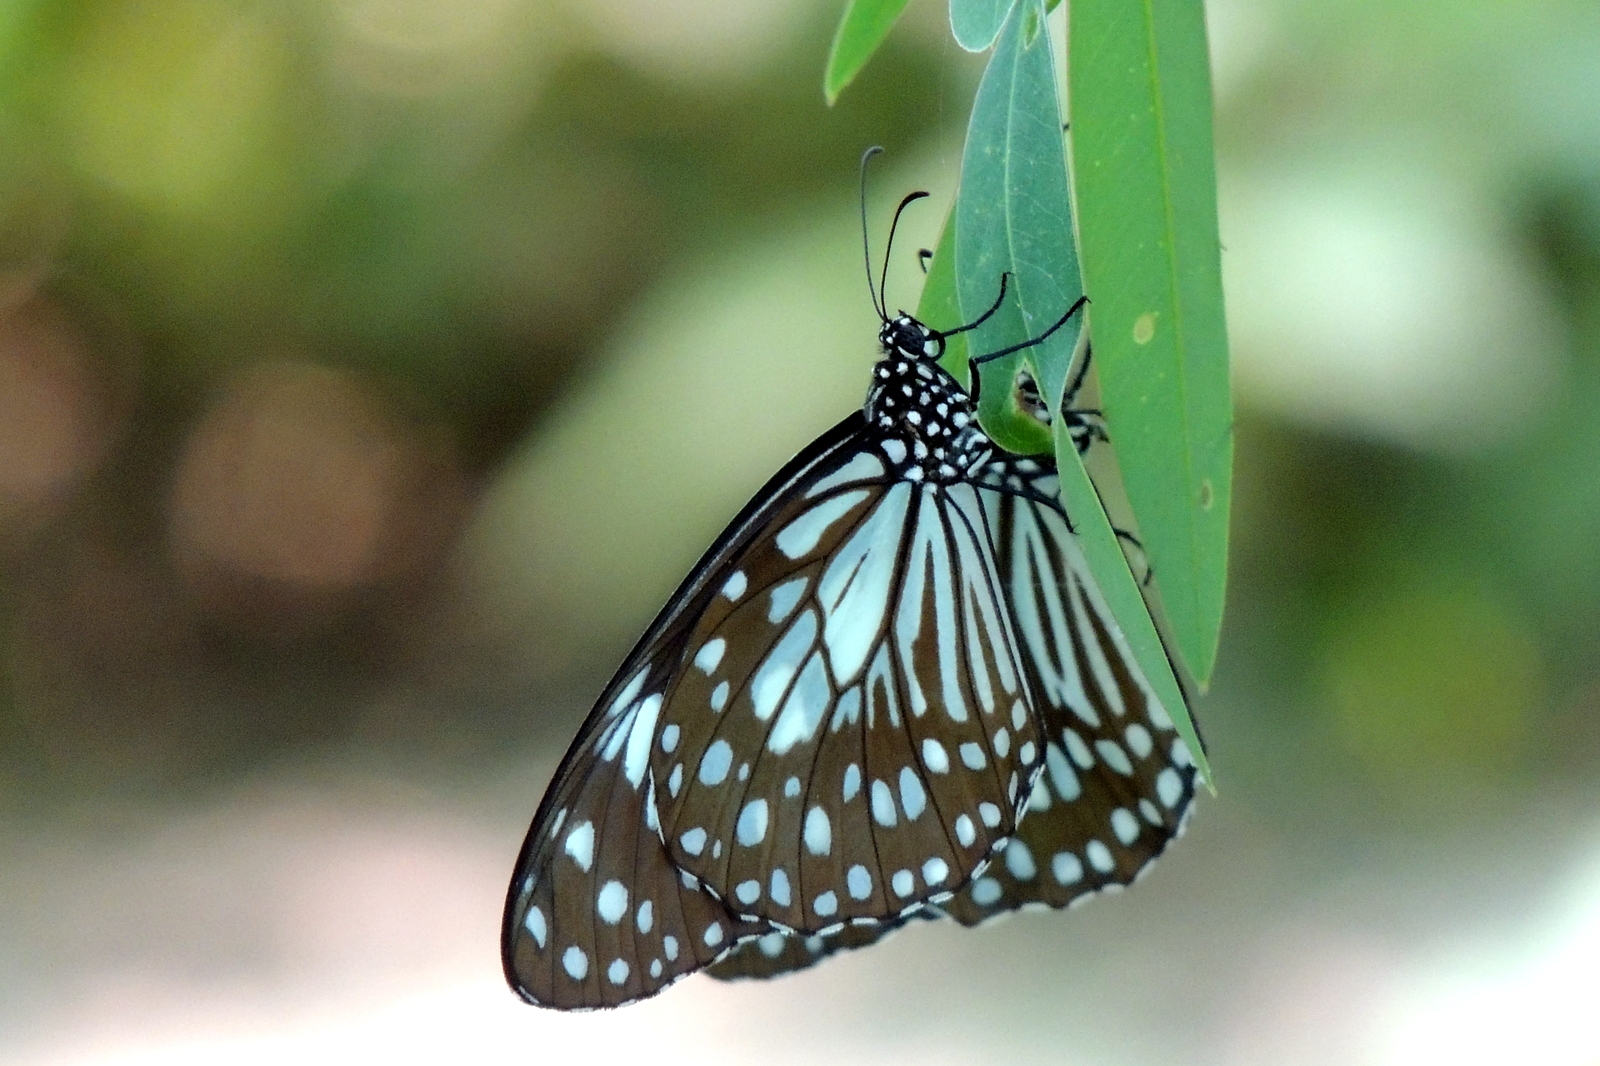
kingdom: Animalia
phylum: Arthropoda
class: Insecta
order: Lepidoptera
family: Nymphalidae
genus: Tirumala
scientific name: Tirumala limniace
